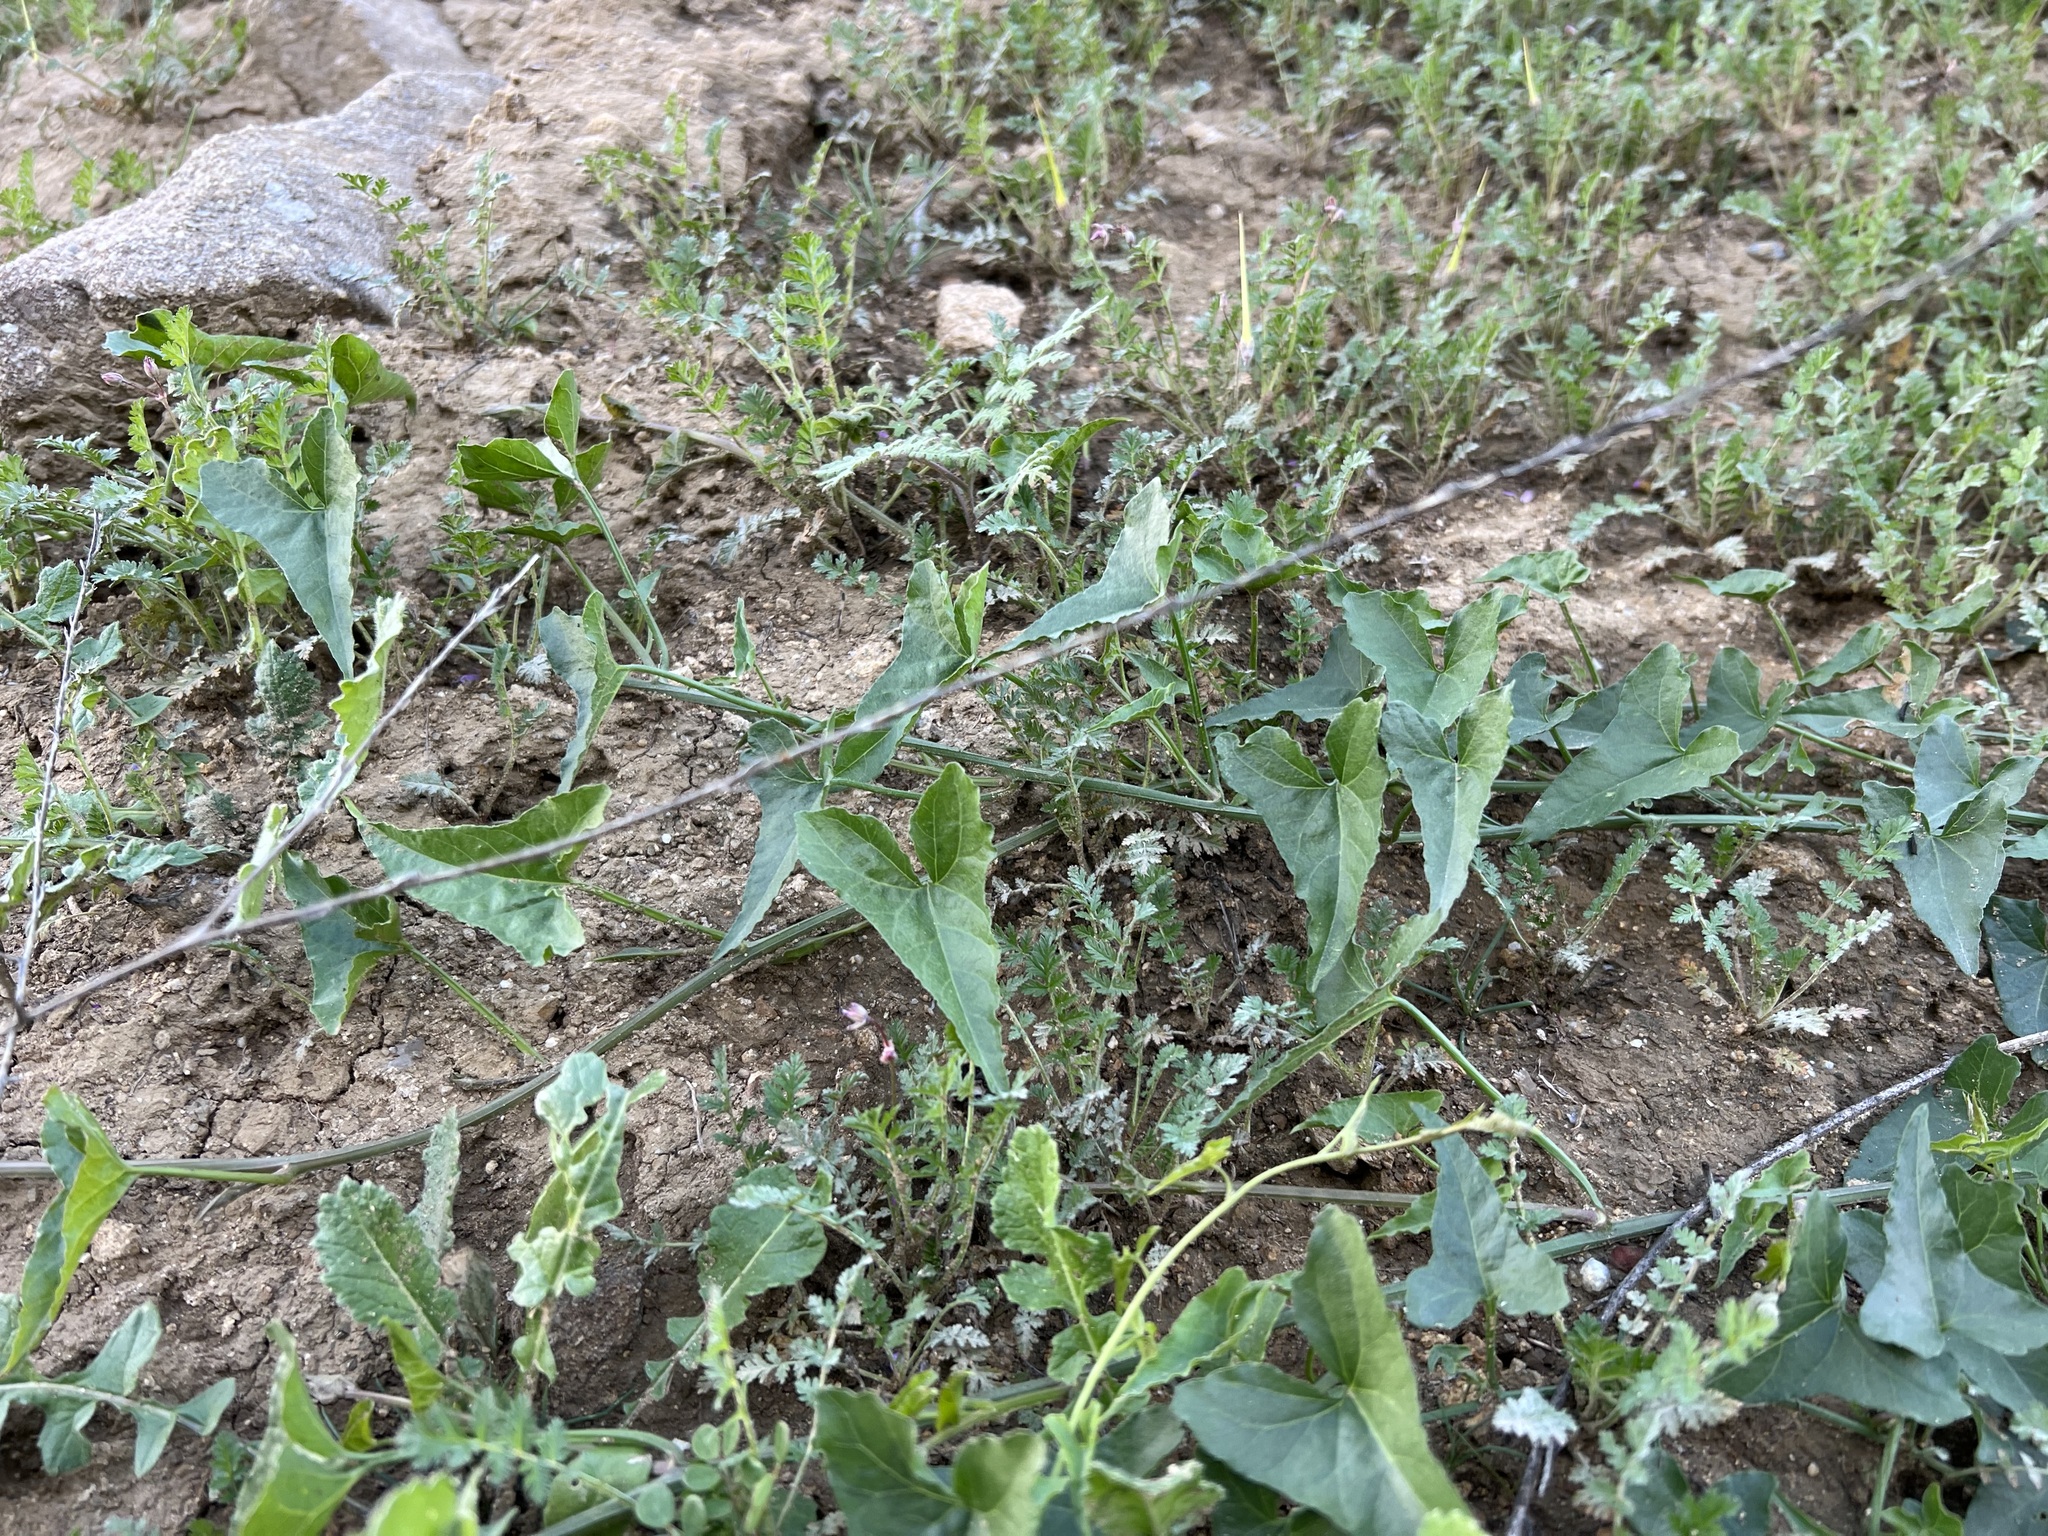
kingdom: Plantae
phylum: Tracheophyta
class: Magnoliopsida
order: Solanales
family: Convolvulaceae
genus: Calystegia
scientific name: Calystegia macrostegia
